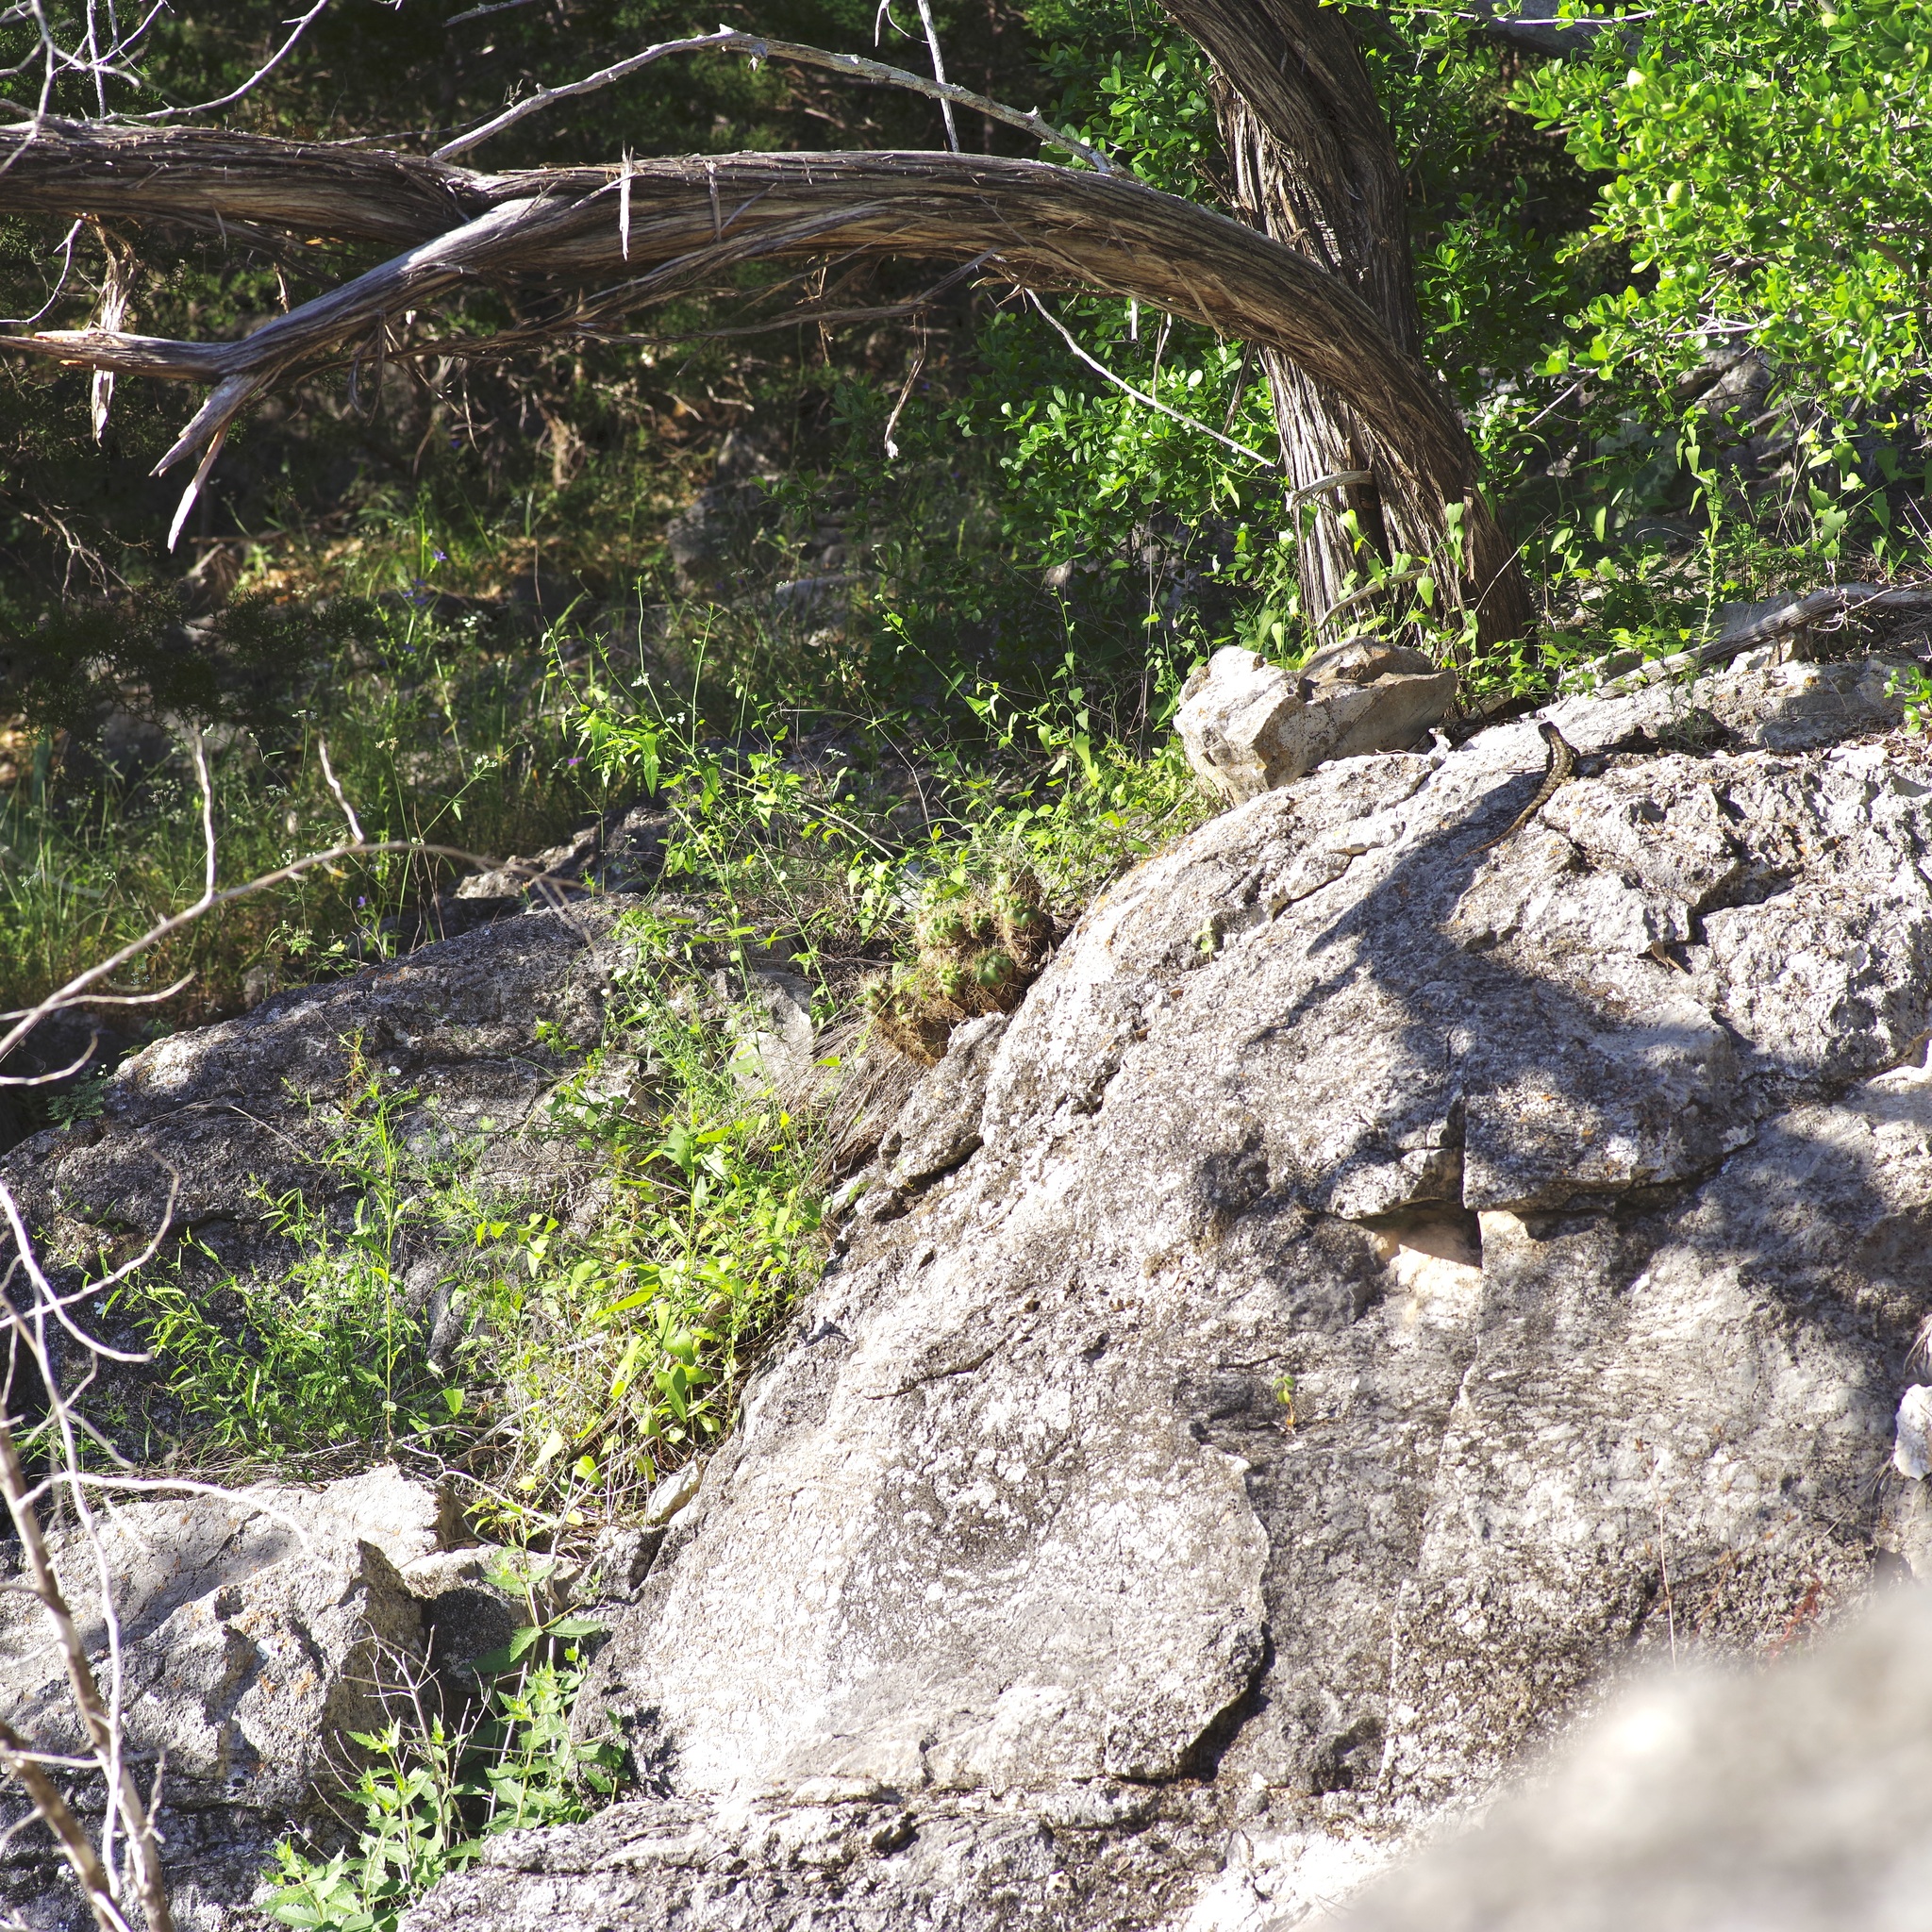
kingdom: Animalia
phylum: Chordata
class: Squamata
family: Phrynosomatidae
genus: Sceloporus
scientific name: Sceloporus olivaceus
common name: Texas spiny lizard
